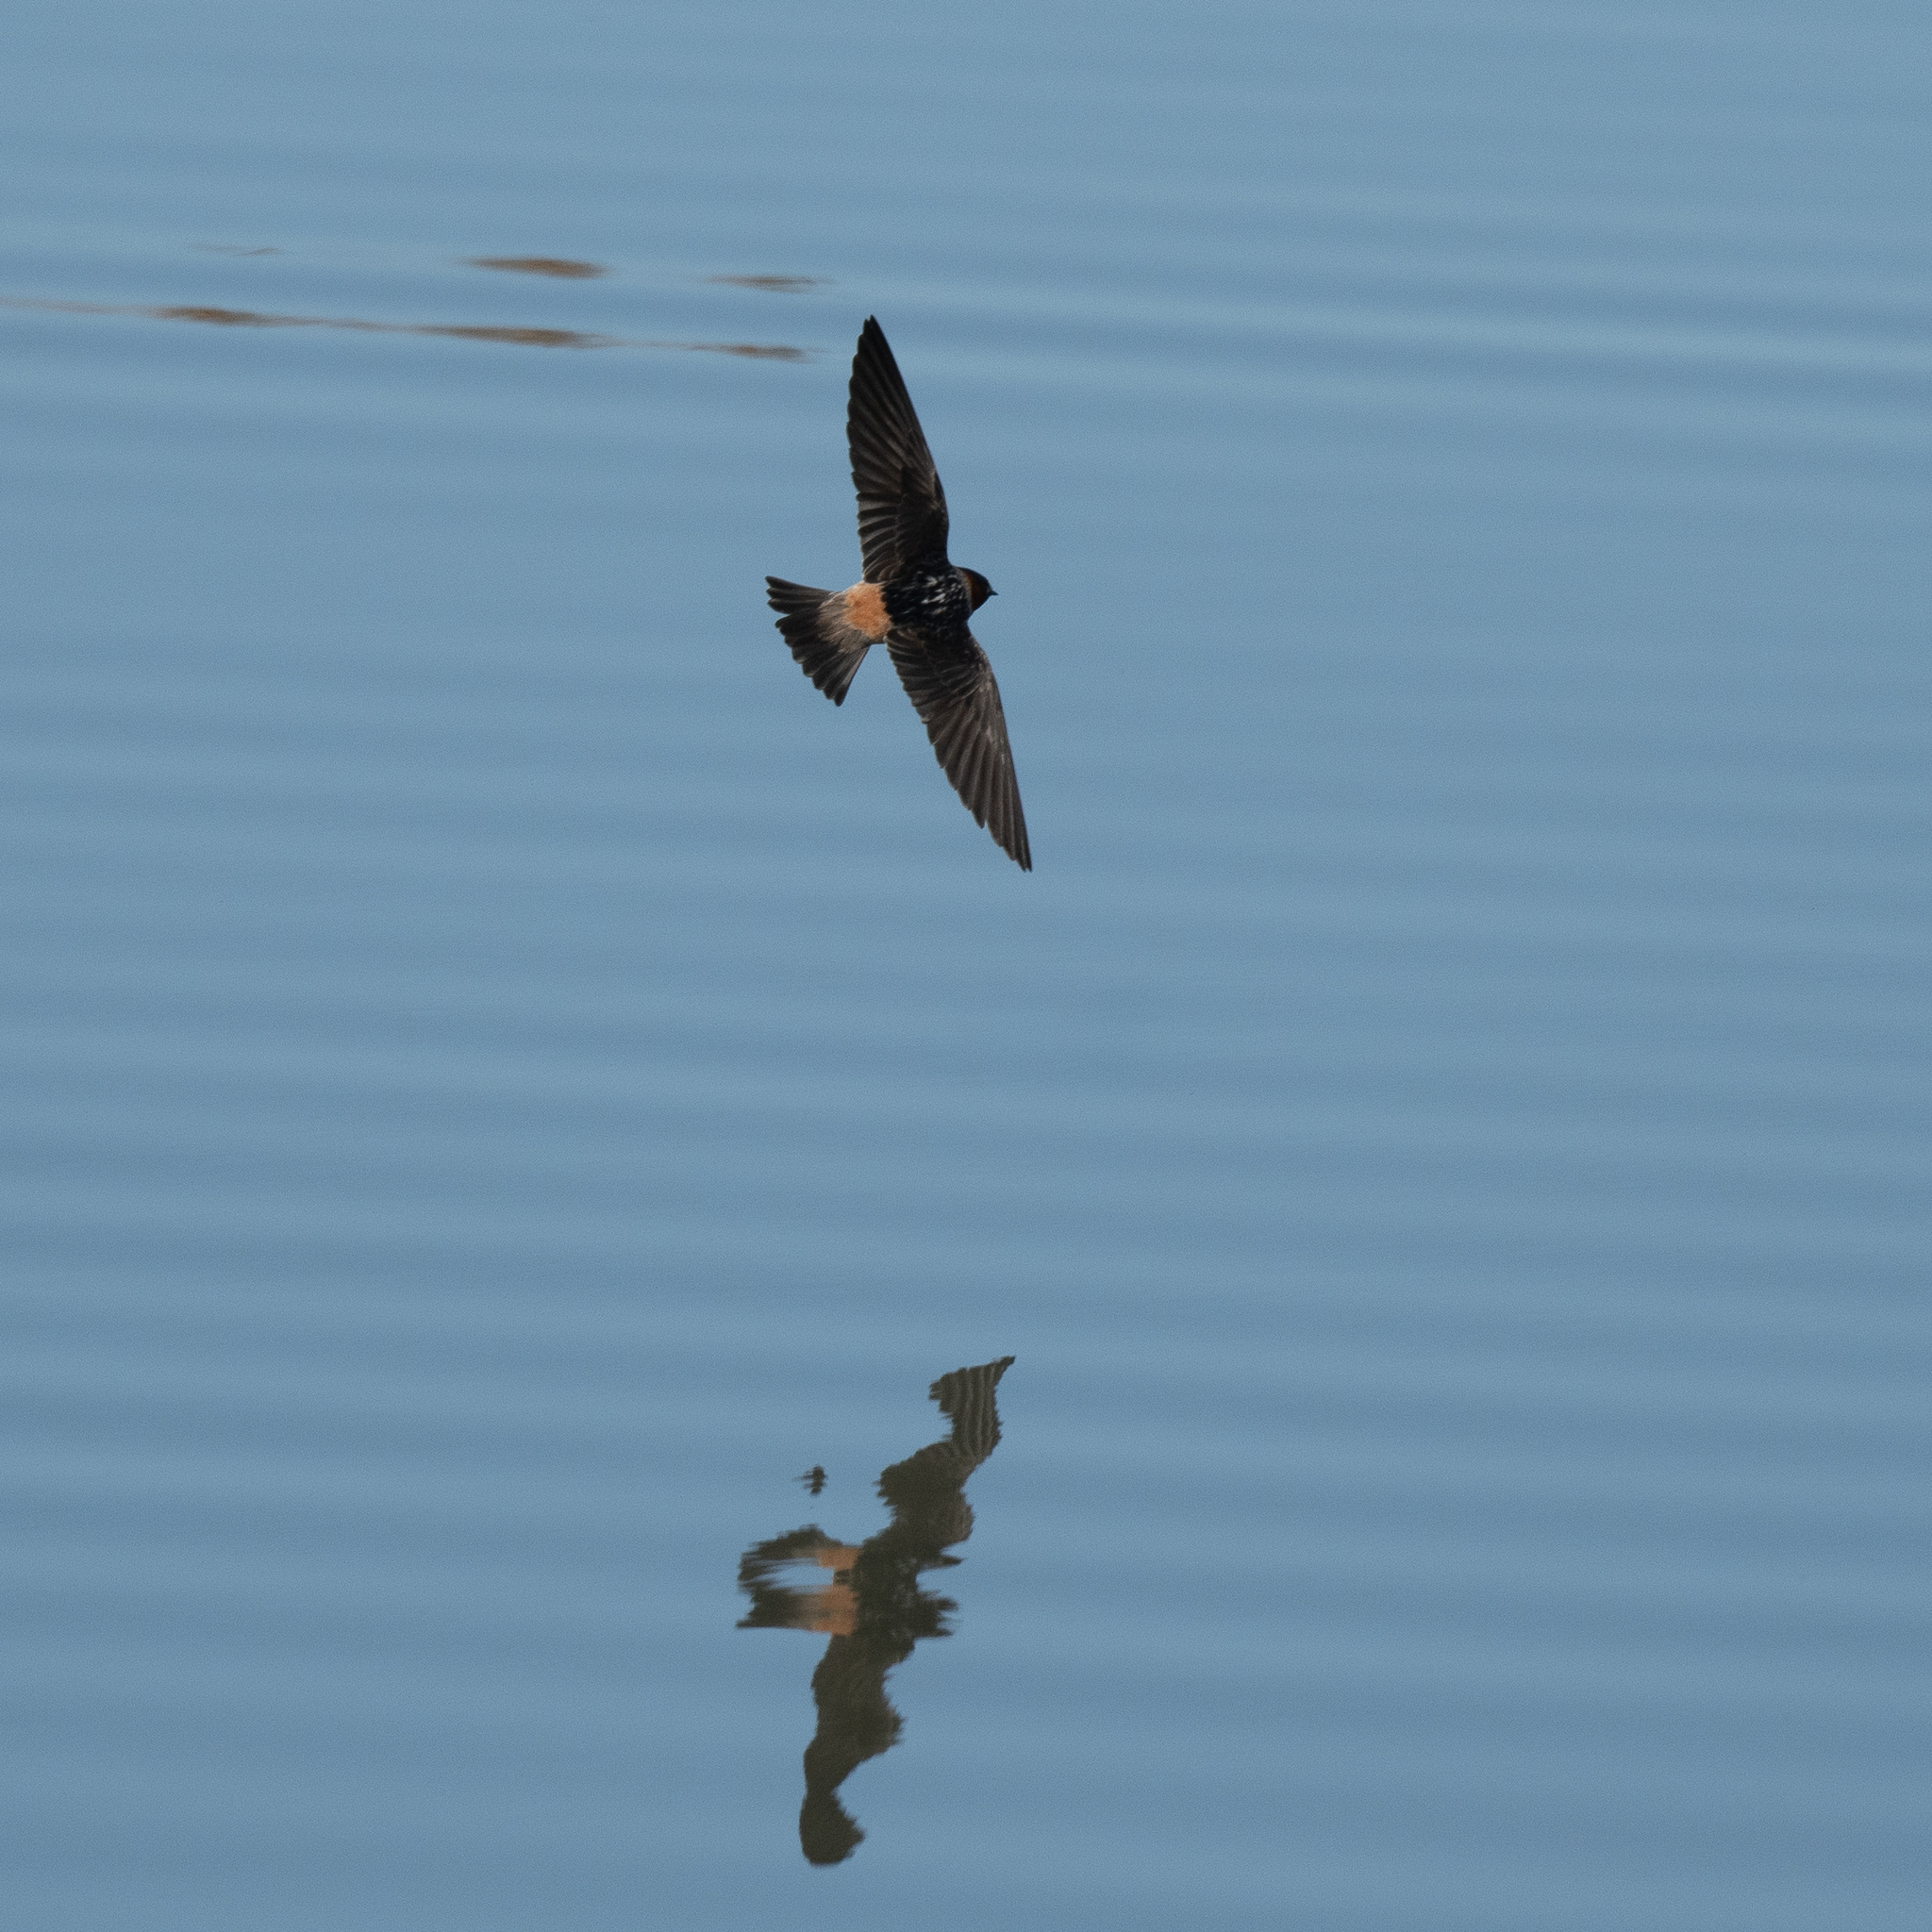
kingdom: Animalia
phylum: Chordata
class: Aves
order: Passeriformes
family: Hirundinidae
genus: Petrochelidon
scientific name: Petrochelidon pyrrhonota
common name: American cliff swallow
